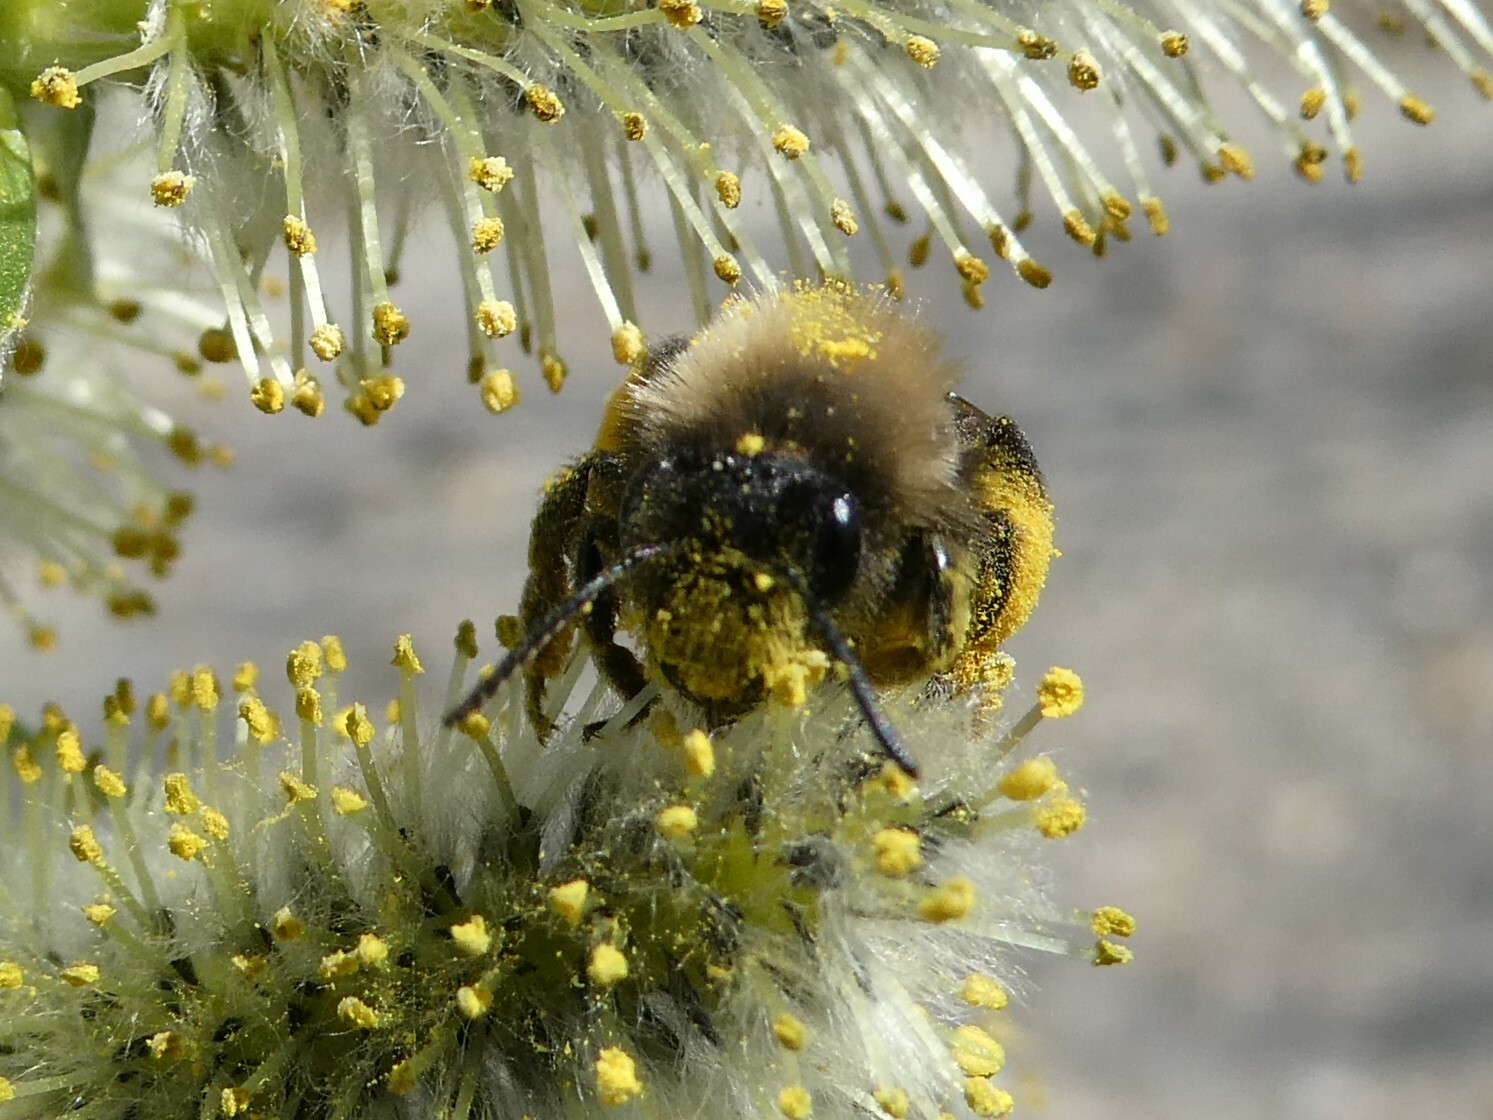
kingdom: Animalia
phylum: Arthropoda
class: Insecta
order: Hymenoptera
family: Andrenidae
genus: Andrena
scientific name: Andrena clarkella
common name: Clarke's mining bee
